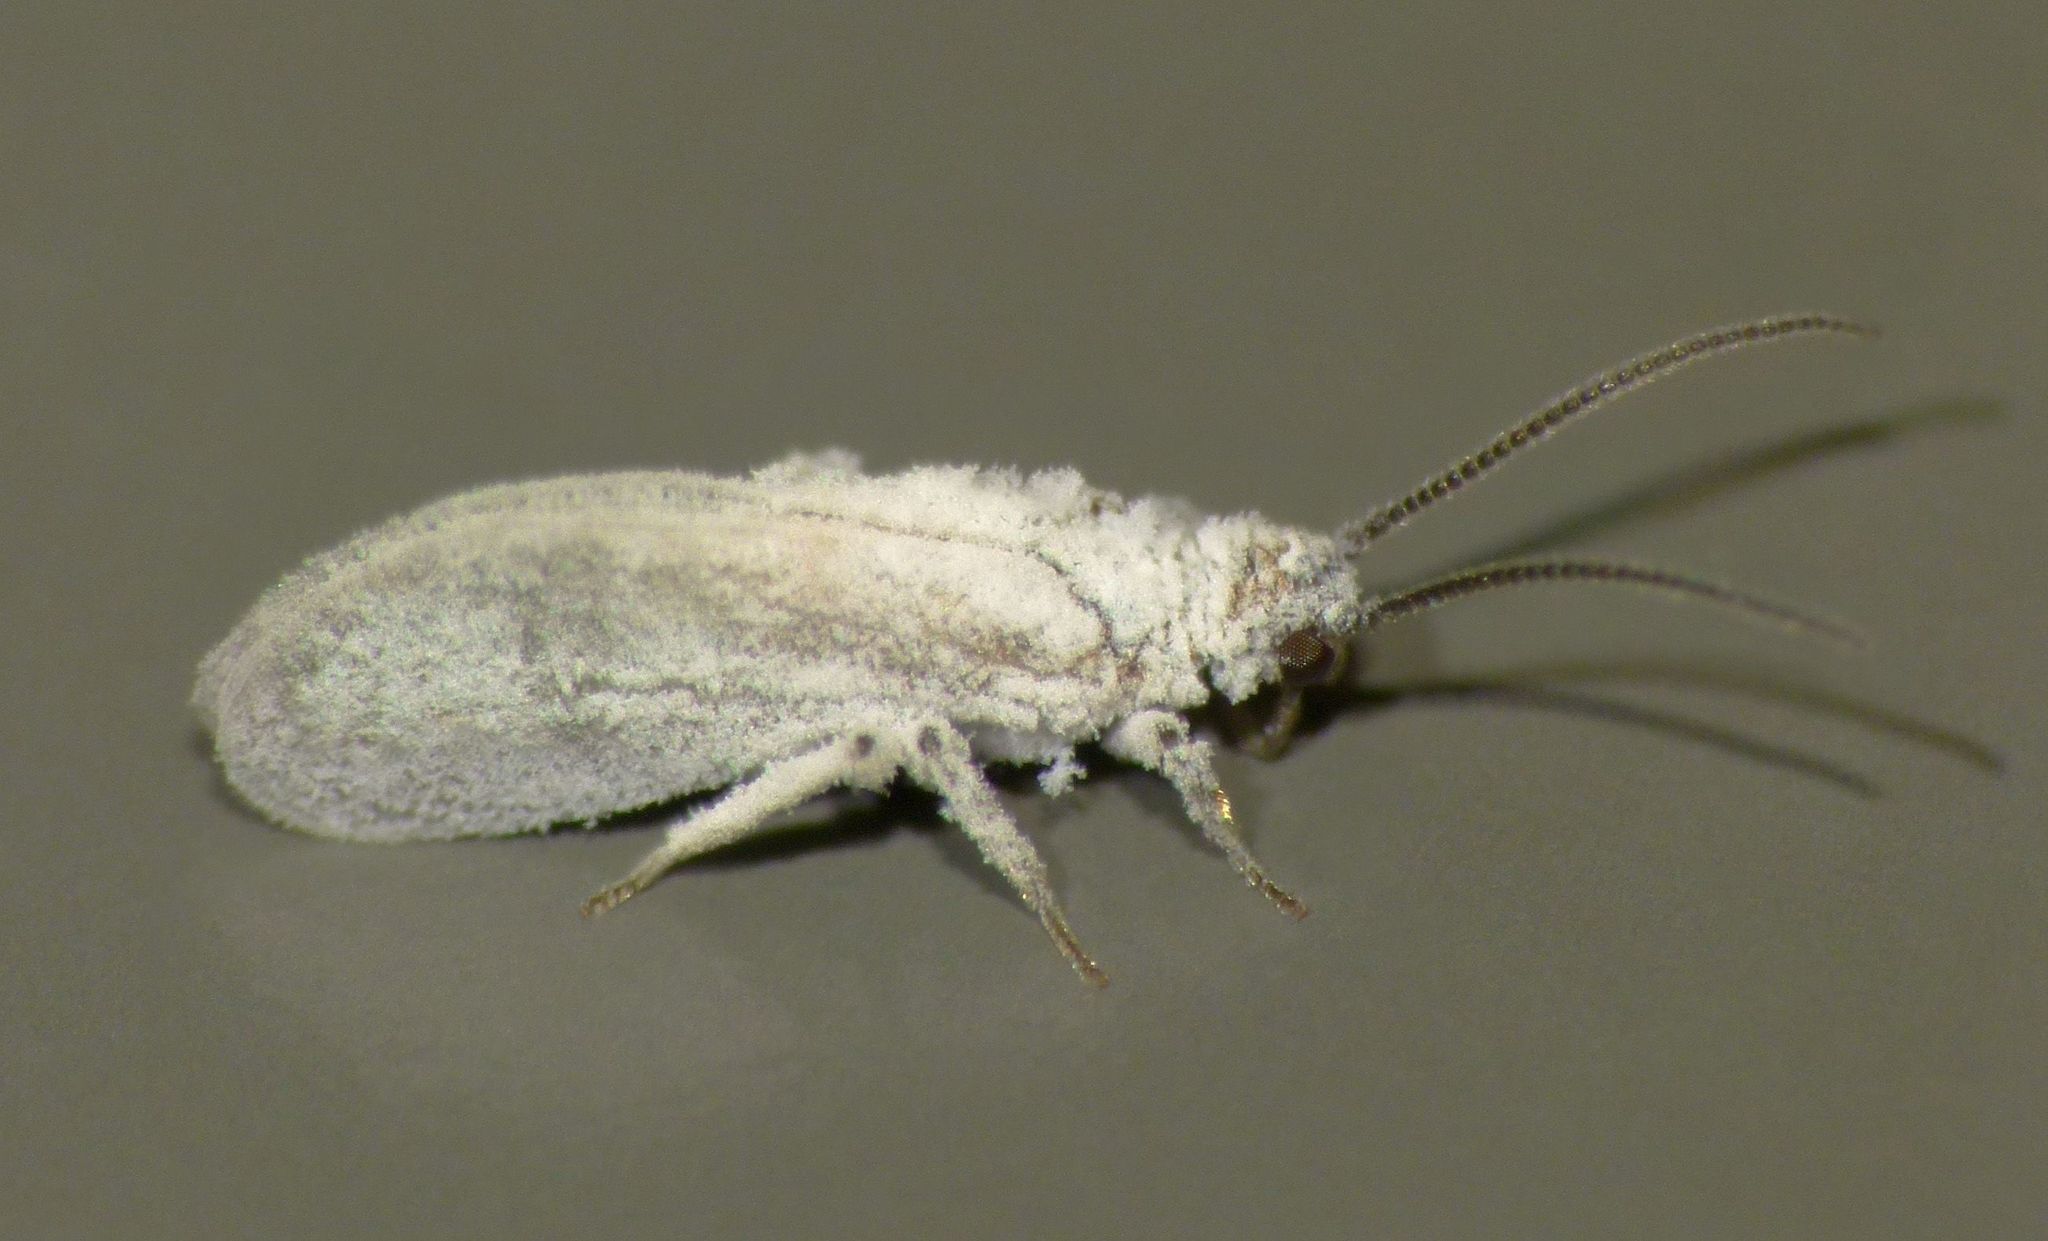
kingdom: Animalia
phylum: Arthropoda
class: Insecta
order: Neuroptera
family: Coniopterygidae
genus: Cryptoscenea
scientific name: Cryptoscenea australiensis
